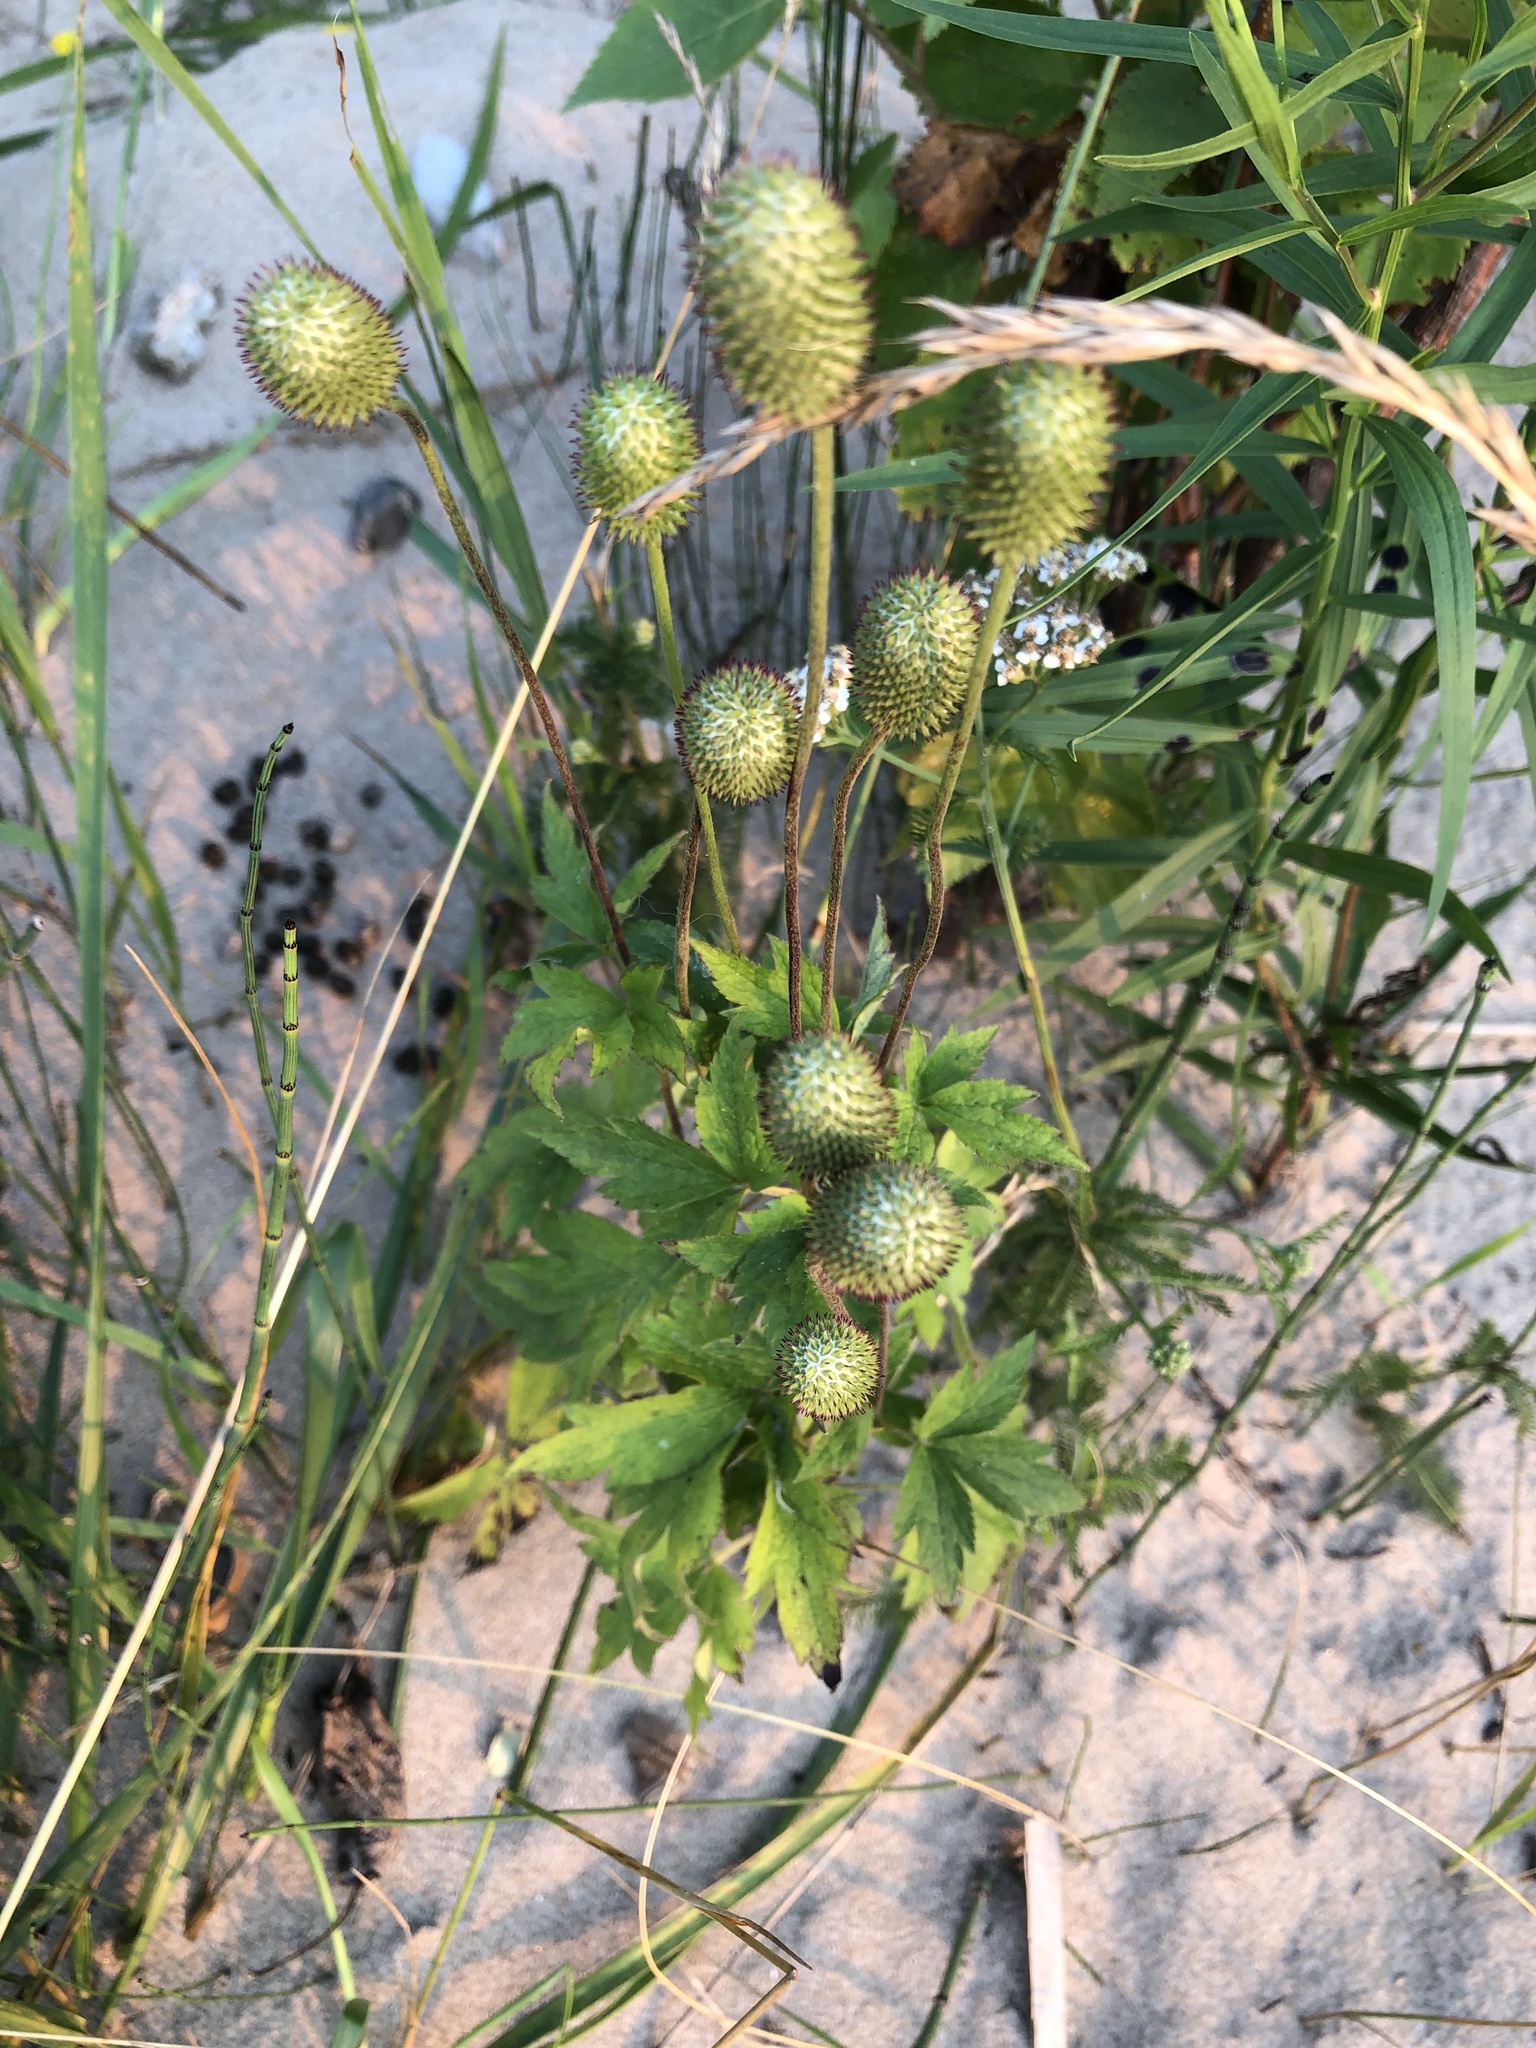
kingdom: Plantae
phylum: Tracheophyta
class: Magnoliopsida
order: Ranunculales
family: Ranunculaceae
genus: Anemone
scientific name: Anemone virginiana
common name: Tall anemone
